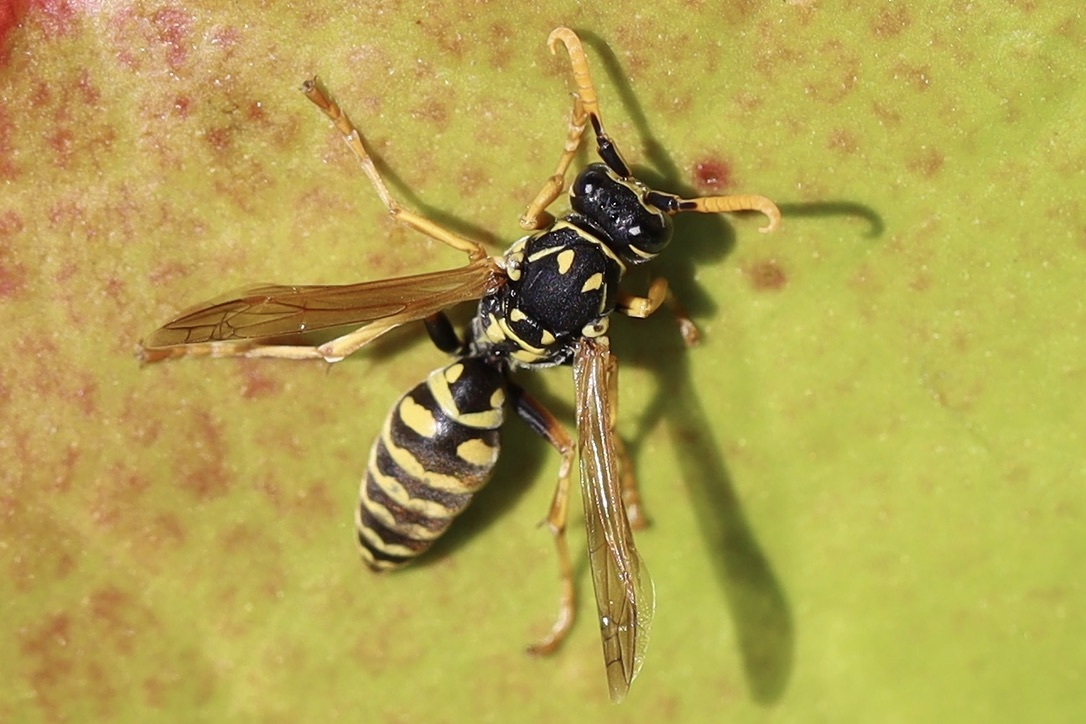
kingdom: Animalia
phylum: Arthropoda
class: Insecta
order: Hymenoptera
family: Eumenidae
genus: Polistes
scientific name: Polistes dominula
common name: Paper wasp
